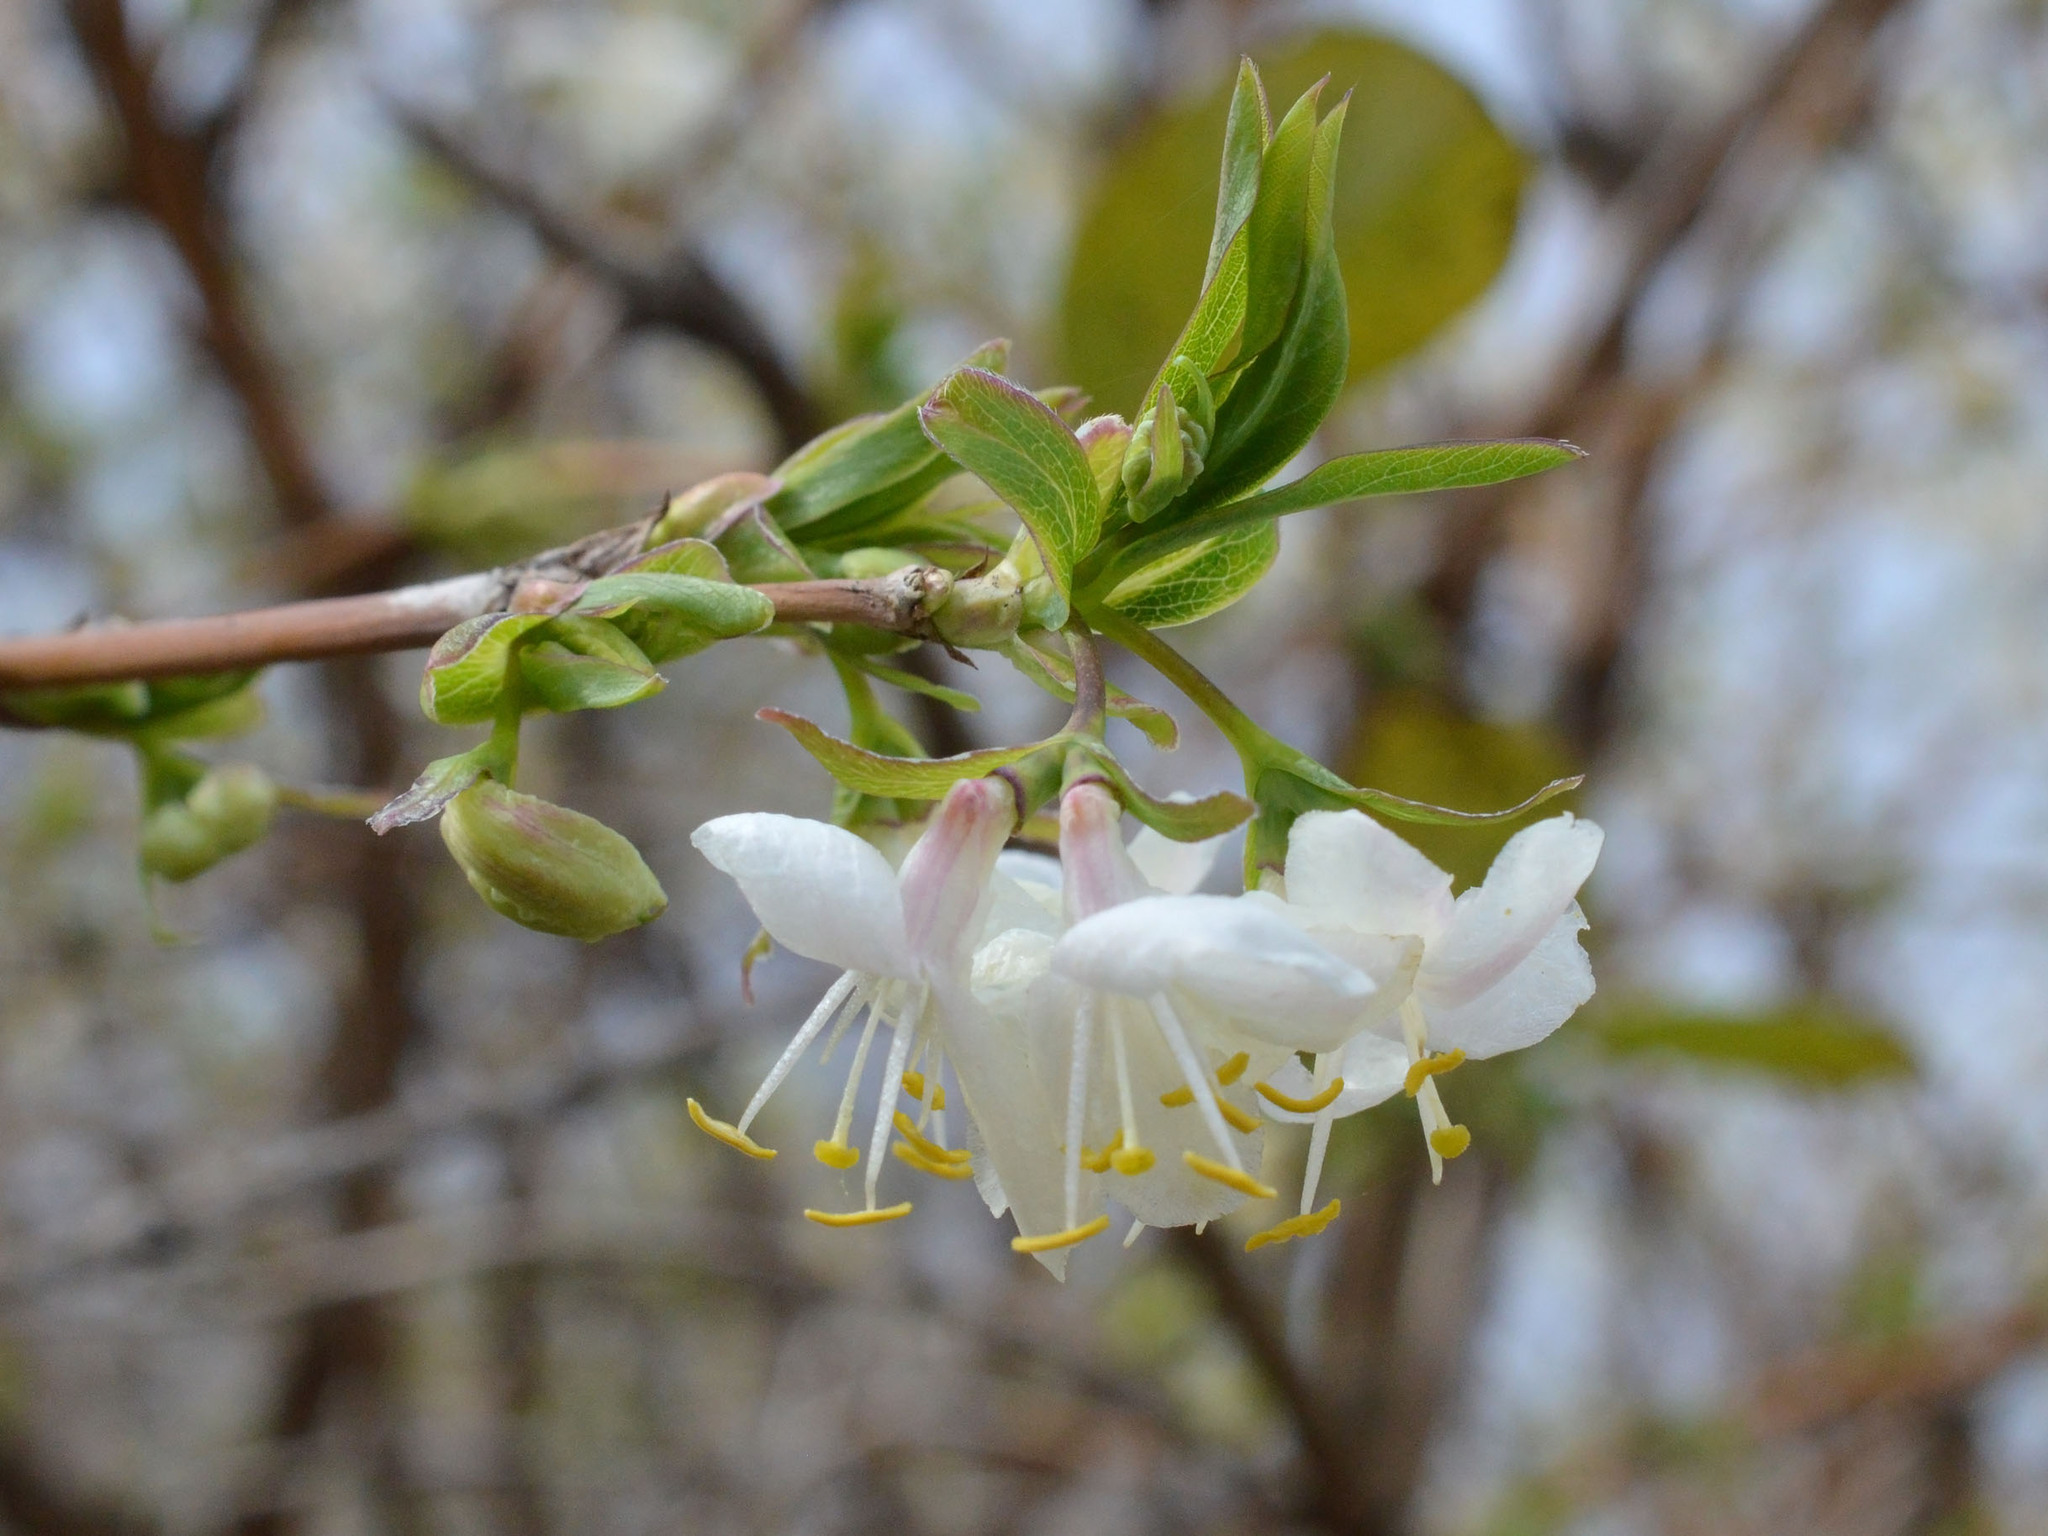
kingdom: Plantae
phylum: Tracheophyta
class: Magnoliopsida
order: Dipsacales
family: Caprifoliaceae
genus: Lonicera
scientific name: Lonicera fragrantissima
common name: Fragrant honeysuckle
